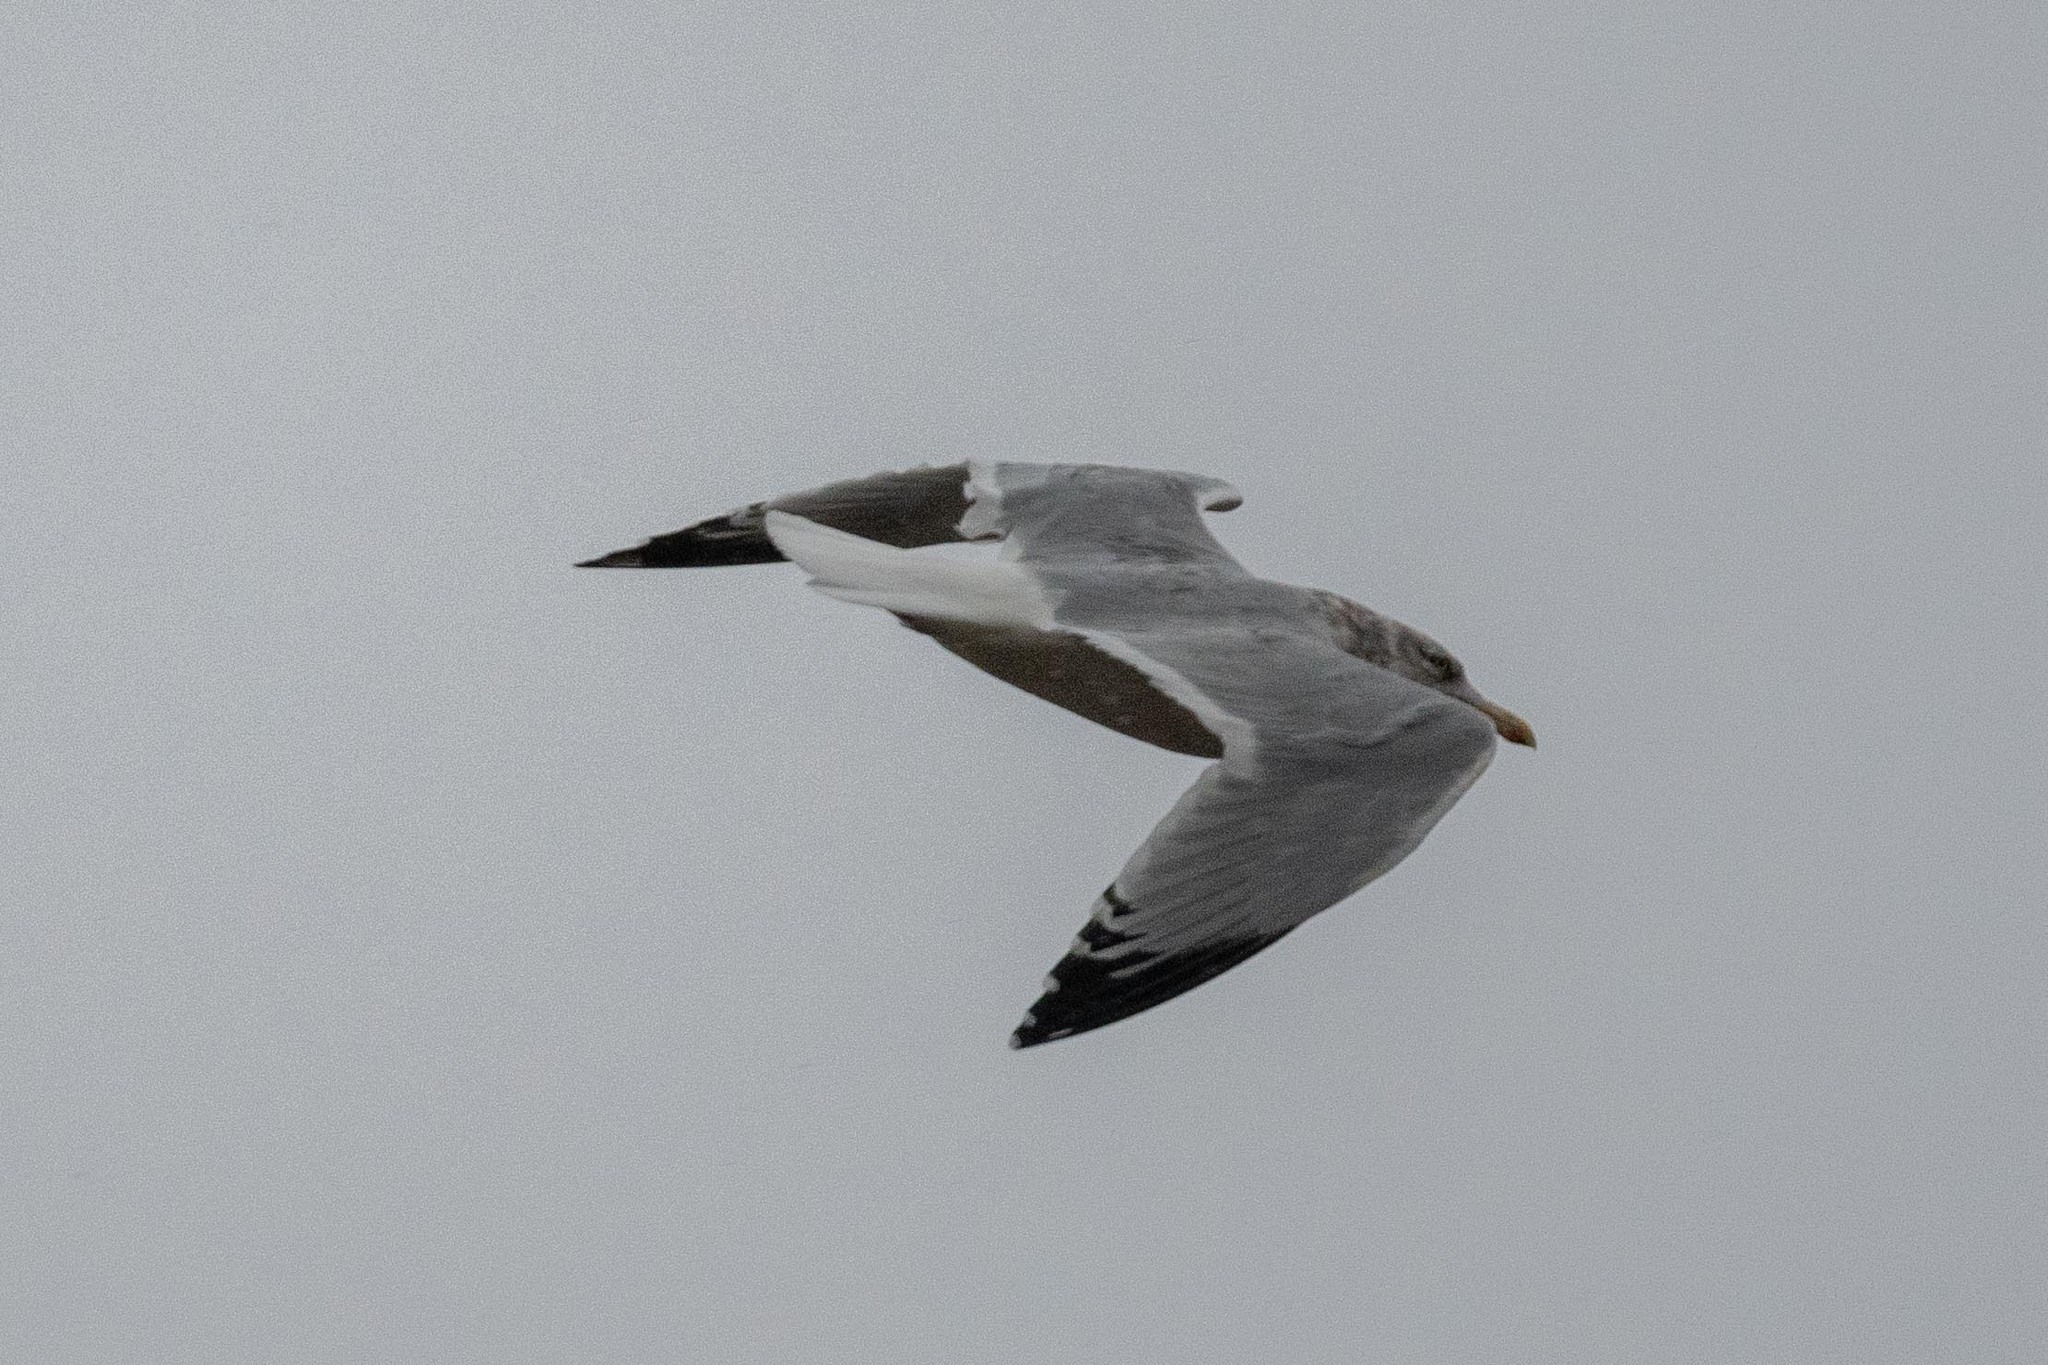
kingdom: Animalia
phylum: Chordata
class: Aves
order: Charadriiformes
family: Laridae
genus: Larus
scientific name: Larus argentatus
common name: Herring gull
